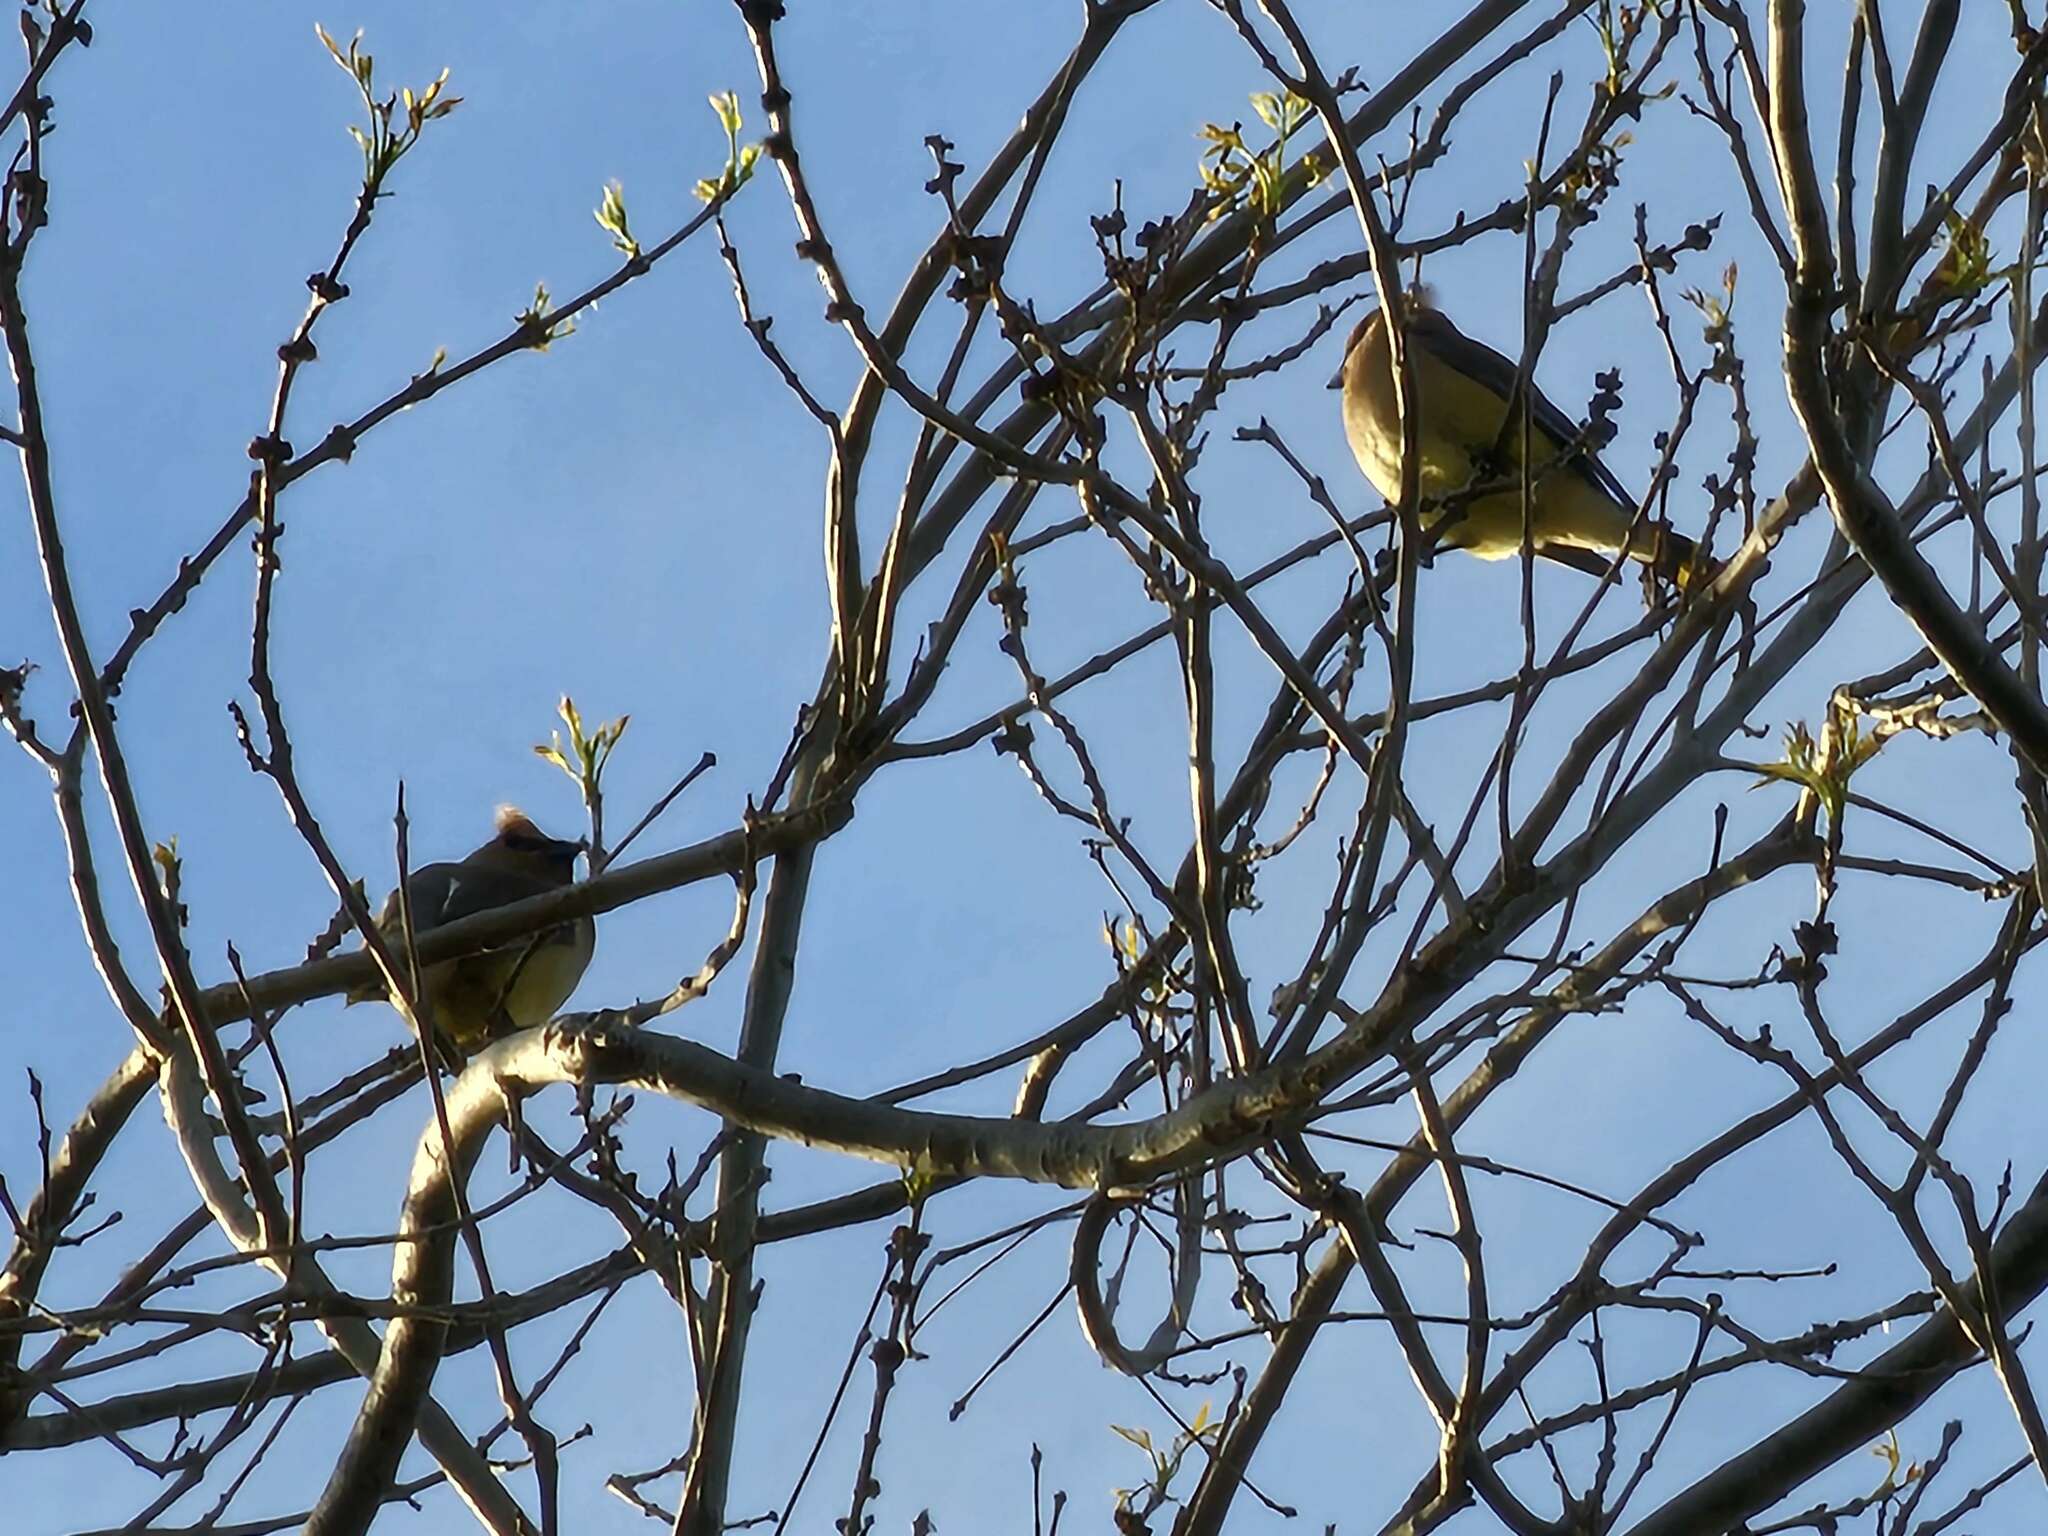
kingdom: Animalia
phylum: Chordata
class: Aves
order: Passeriformes
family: Bombycillidae
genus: Bombycilla
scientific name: Bombycilla cedrorum
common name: Cedar waxwing
